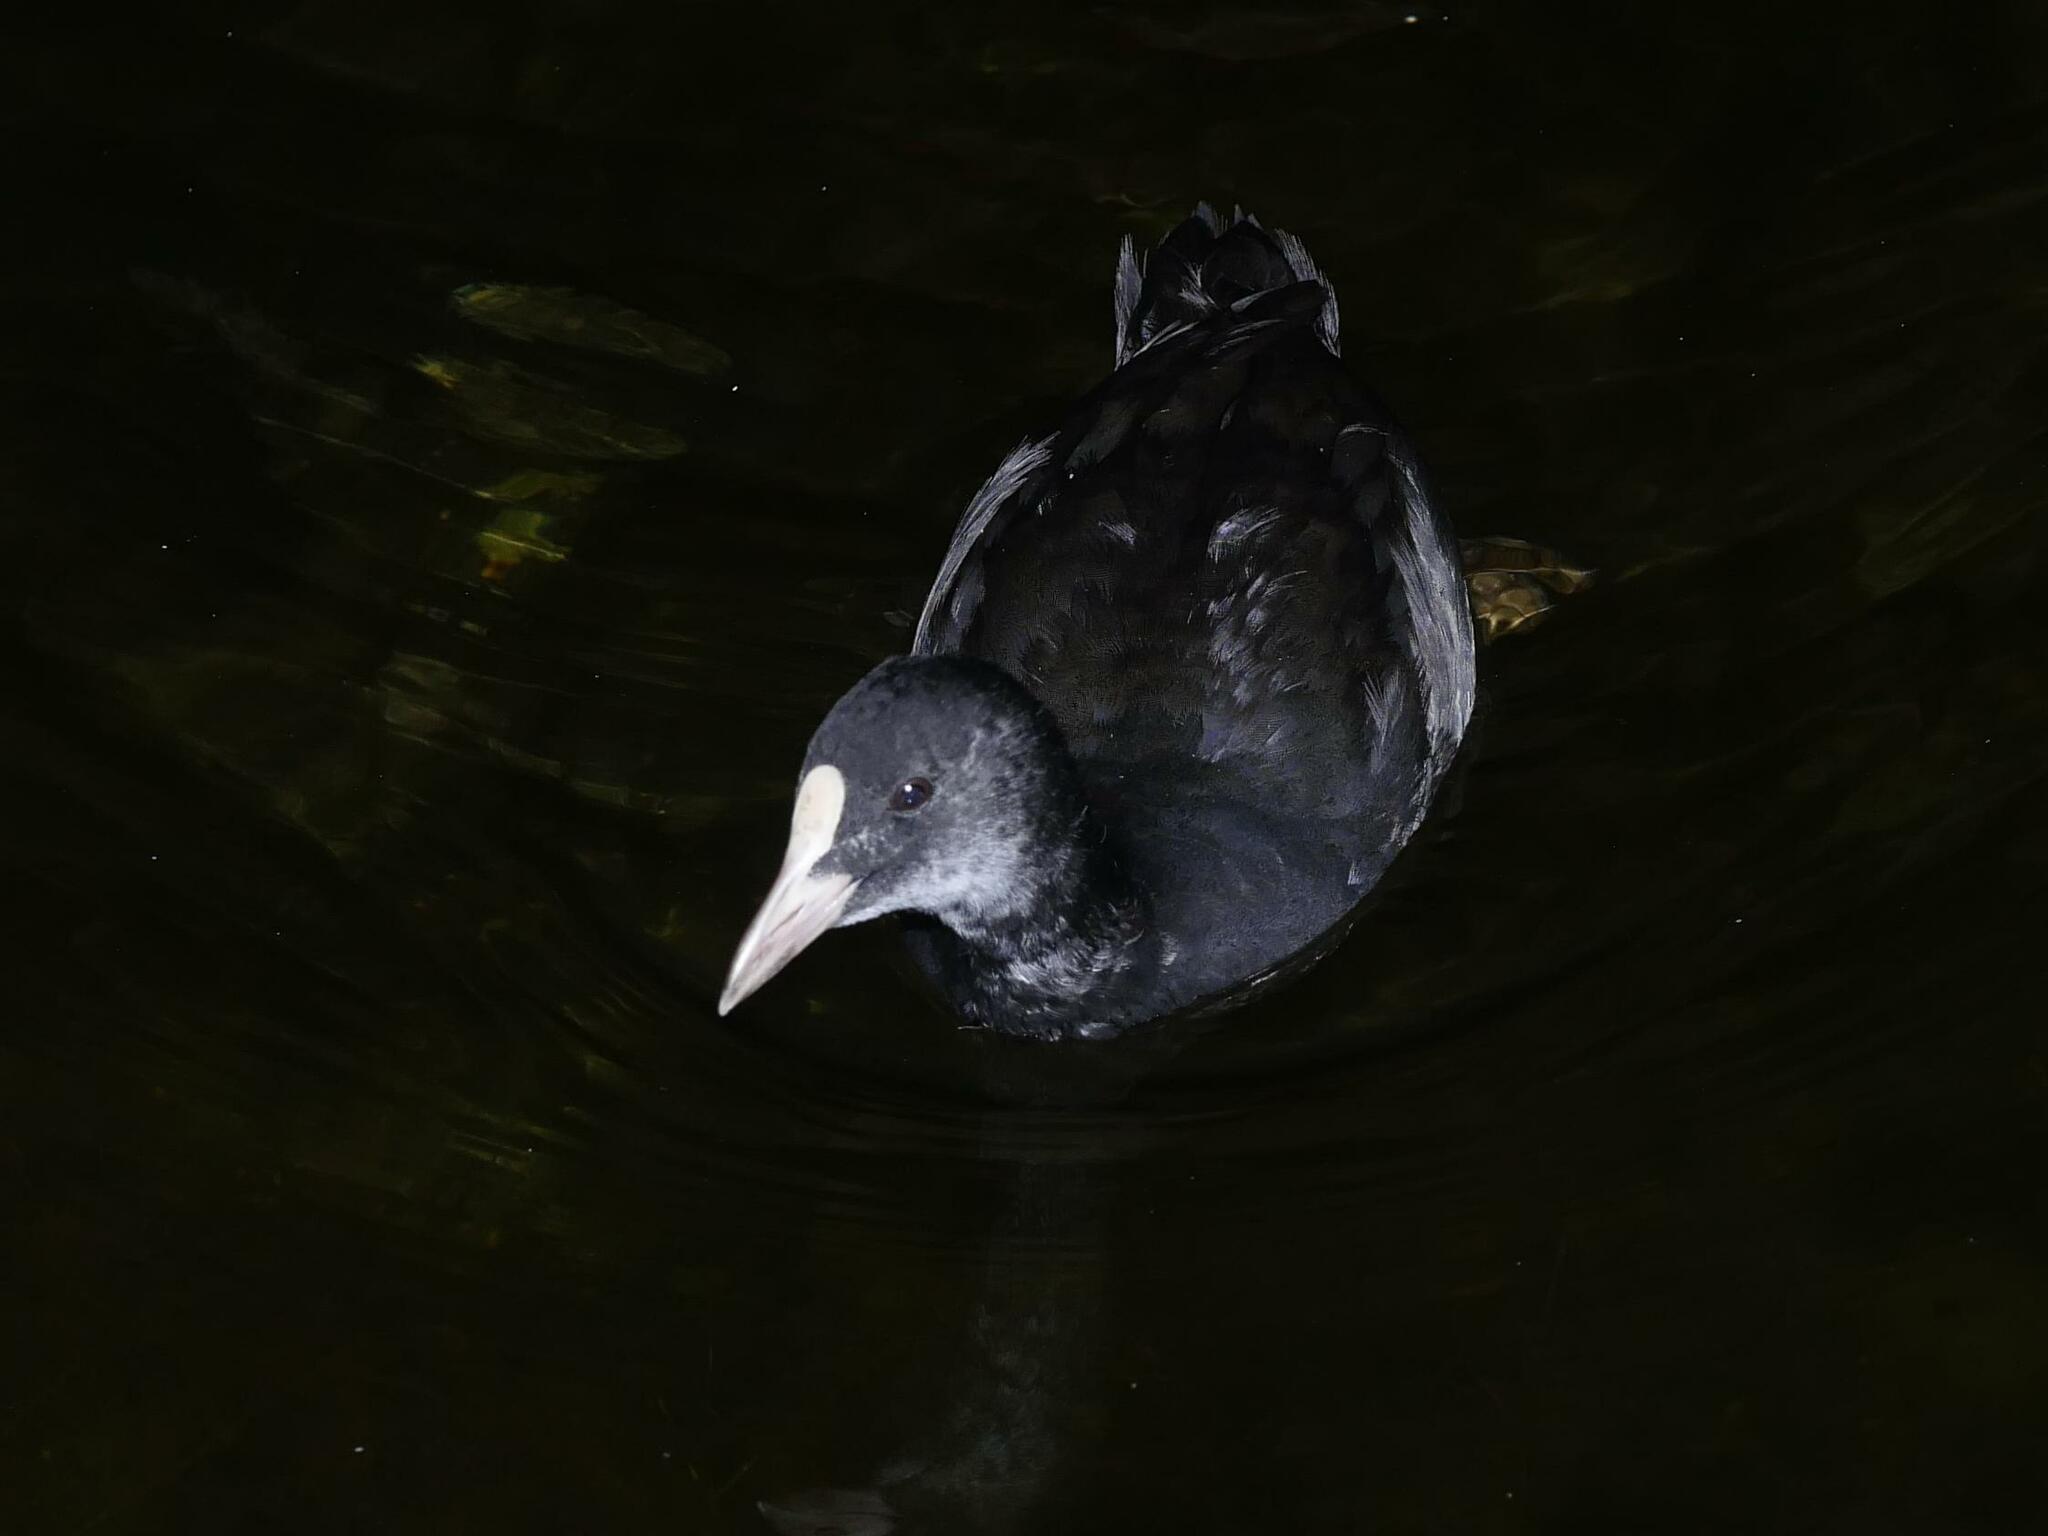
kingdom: Animalia
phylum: Chordata
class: Aves
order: Gruiformes
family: Rallidae
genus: Fulica
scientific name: Fulica atra
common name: Eurasian coot
